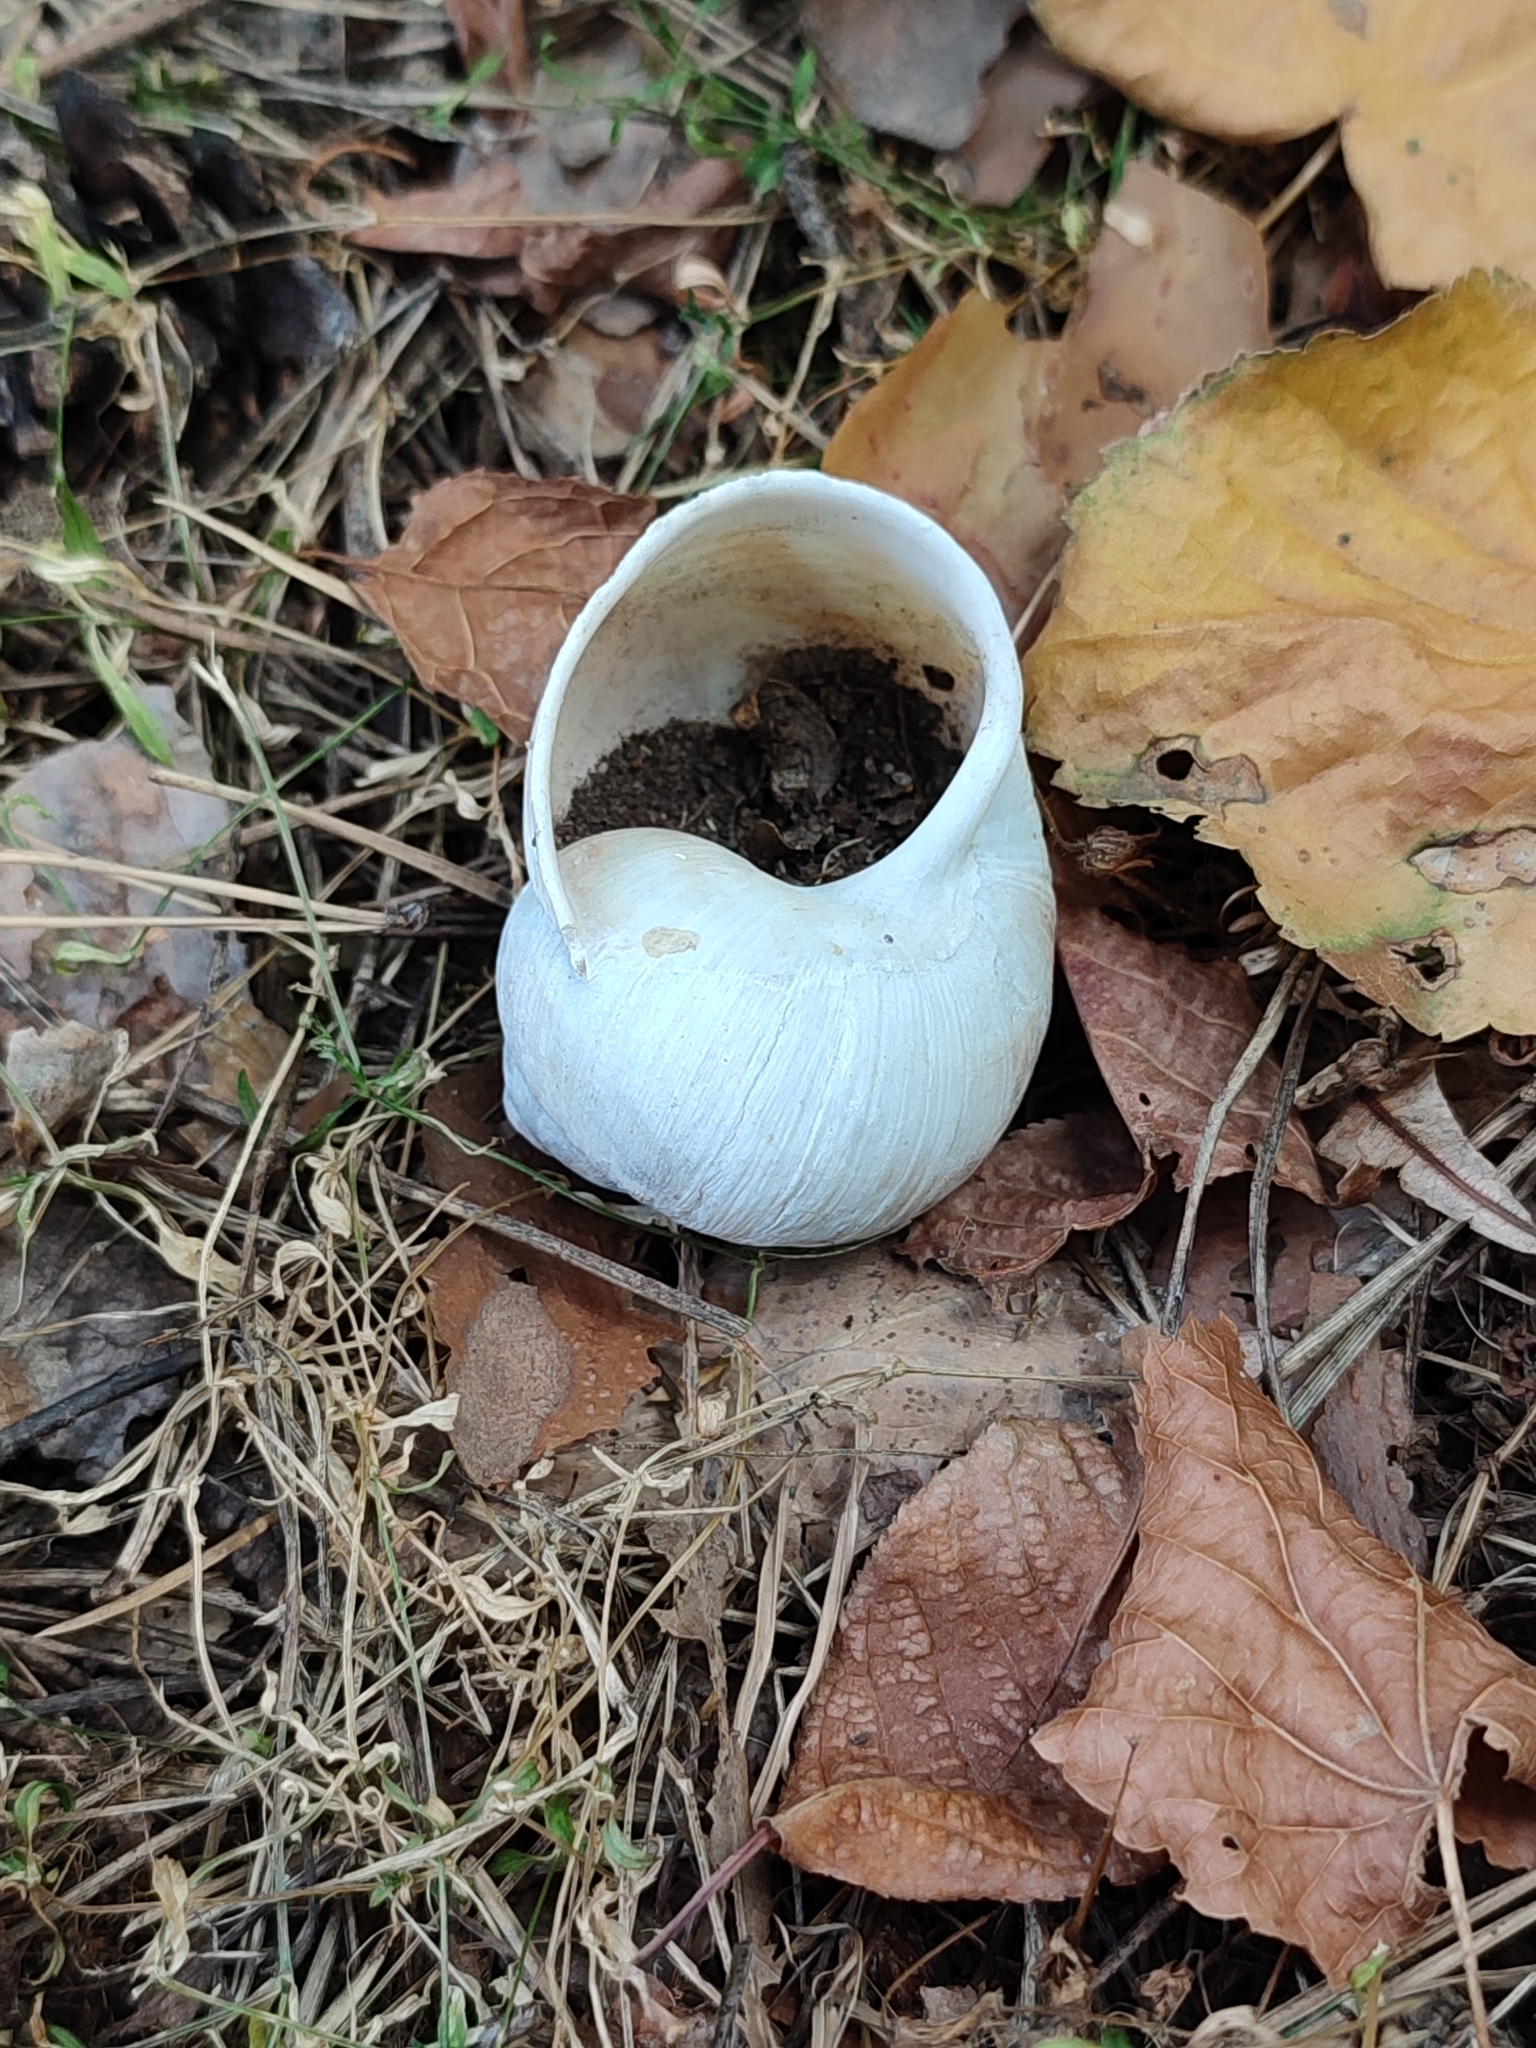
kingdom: Animalia
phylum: Mollusca
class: Gastropoda
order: Stylommatophora
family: Helicidae
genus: Helix
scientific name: Helix pomatia
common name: Roman snail
